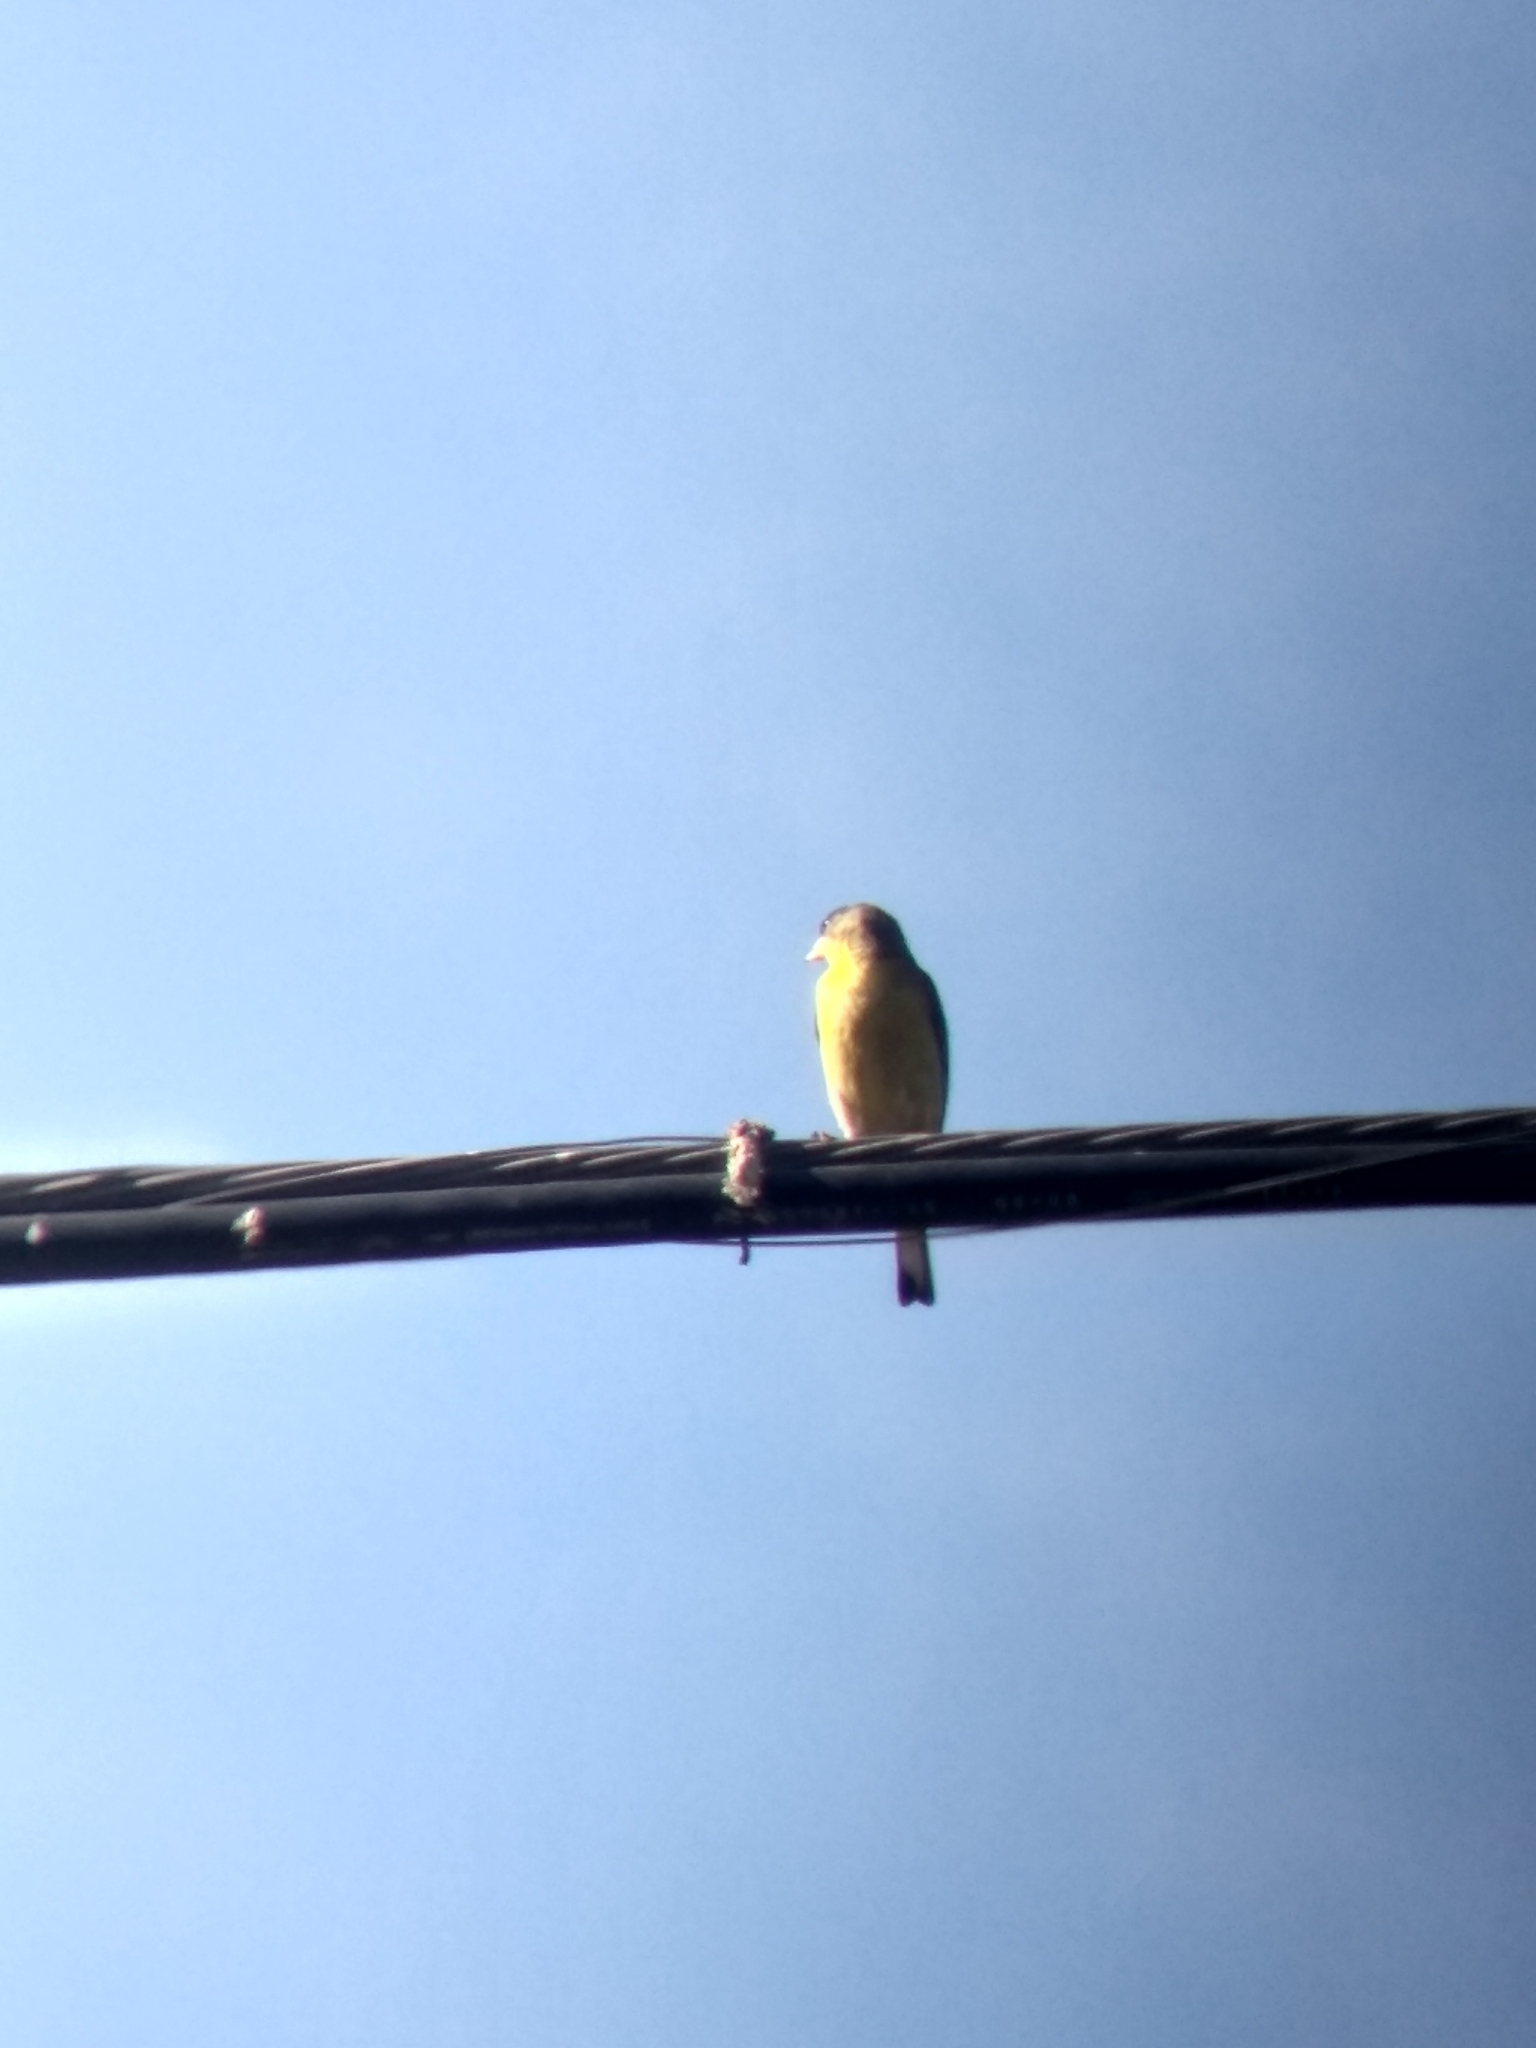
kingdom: Animalia
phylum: Chordata
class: Aves
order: Passeriformes
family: Fringillidae
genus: Spinus
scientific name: Spinus psaltria
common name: Lesser goldfinch
